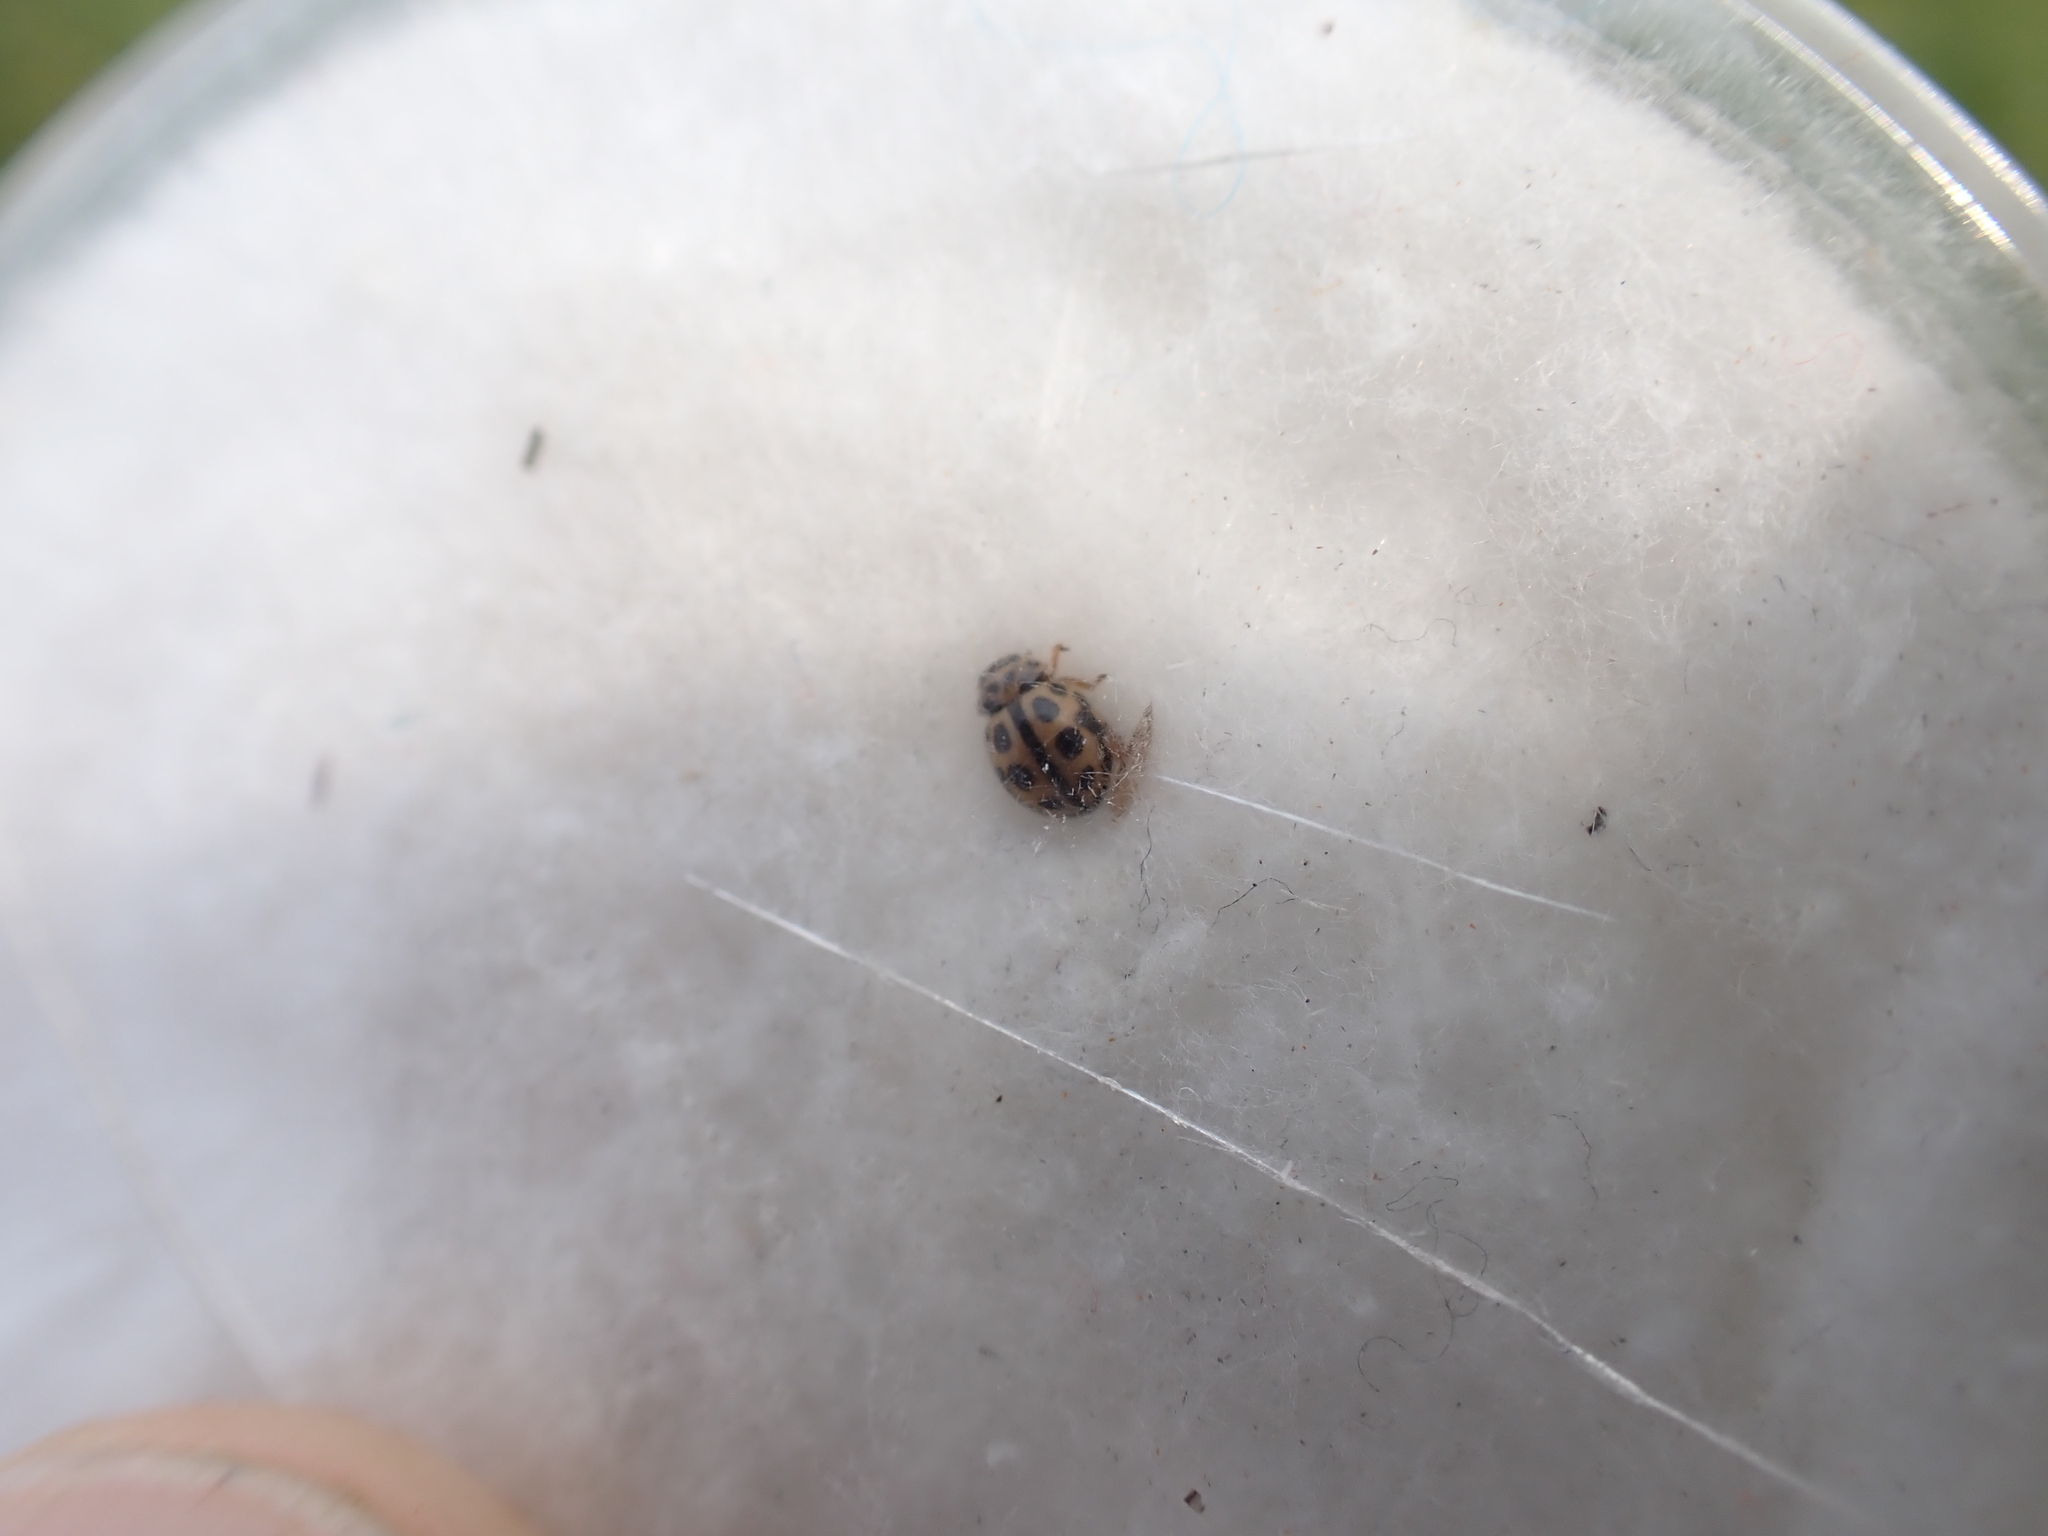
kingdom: Animalia
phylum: Arthropoda
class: Insecta
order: Coleoptera
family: Coccinellidae
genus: Tytthaspis
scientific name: Tytthaspis sedecimpunctata
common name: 16-spot ladybird
